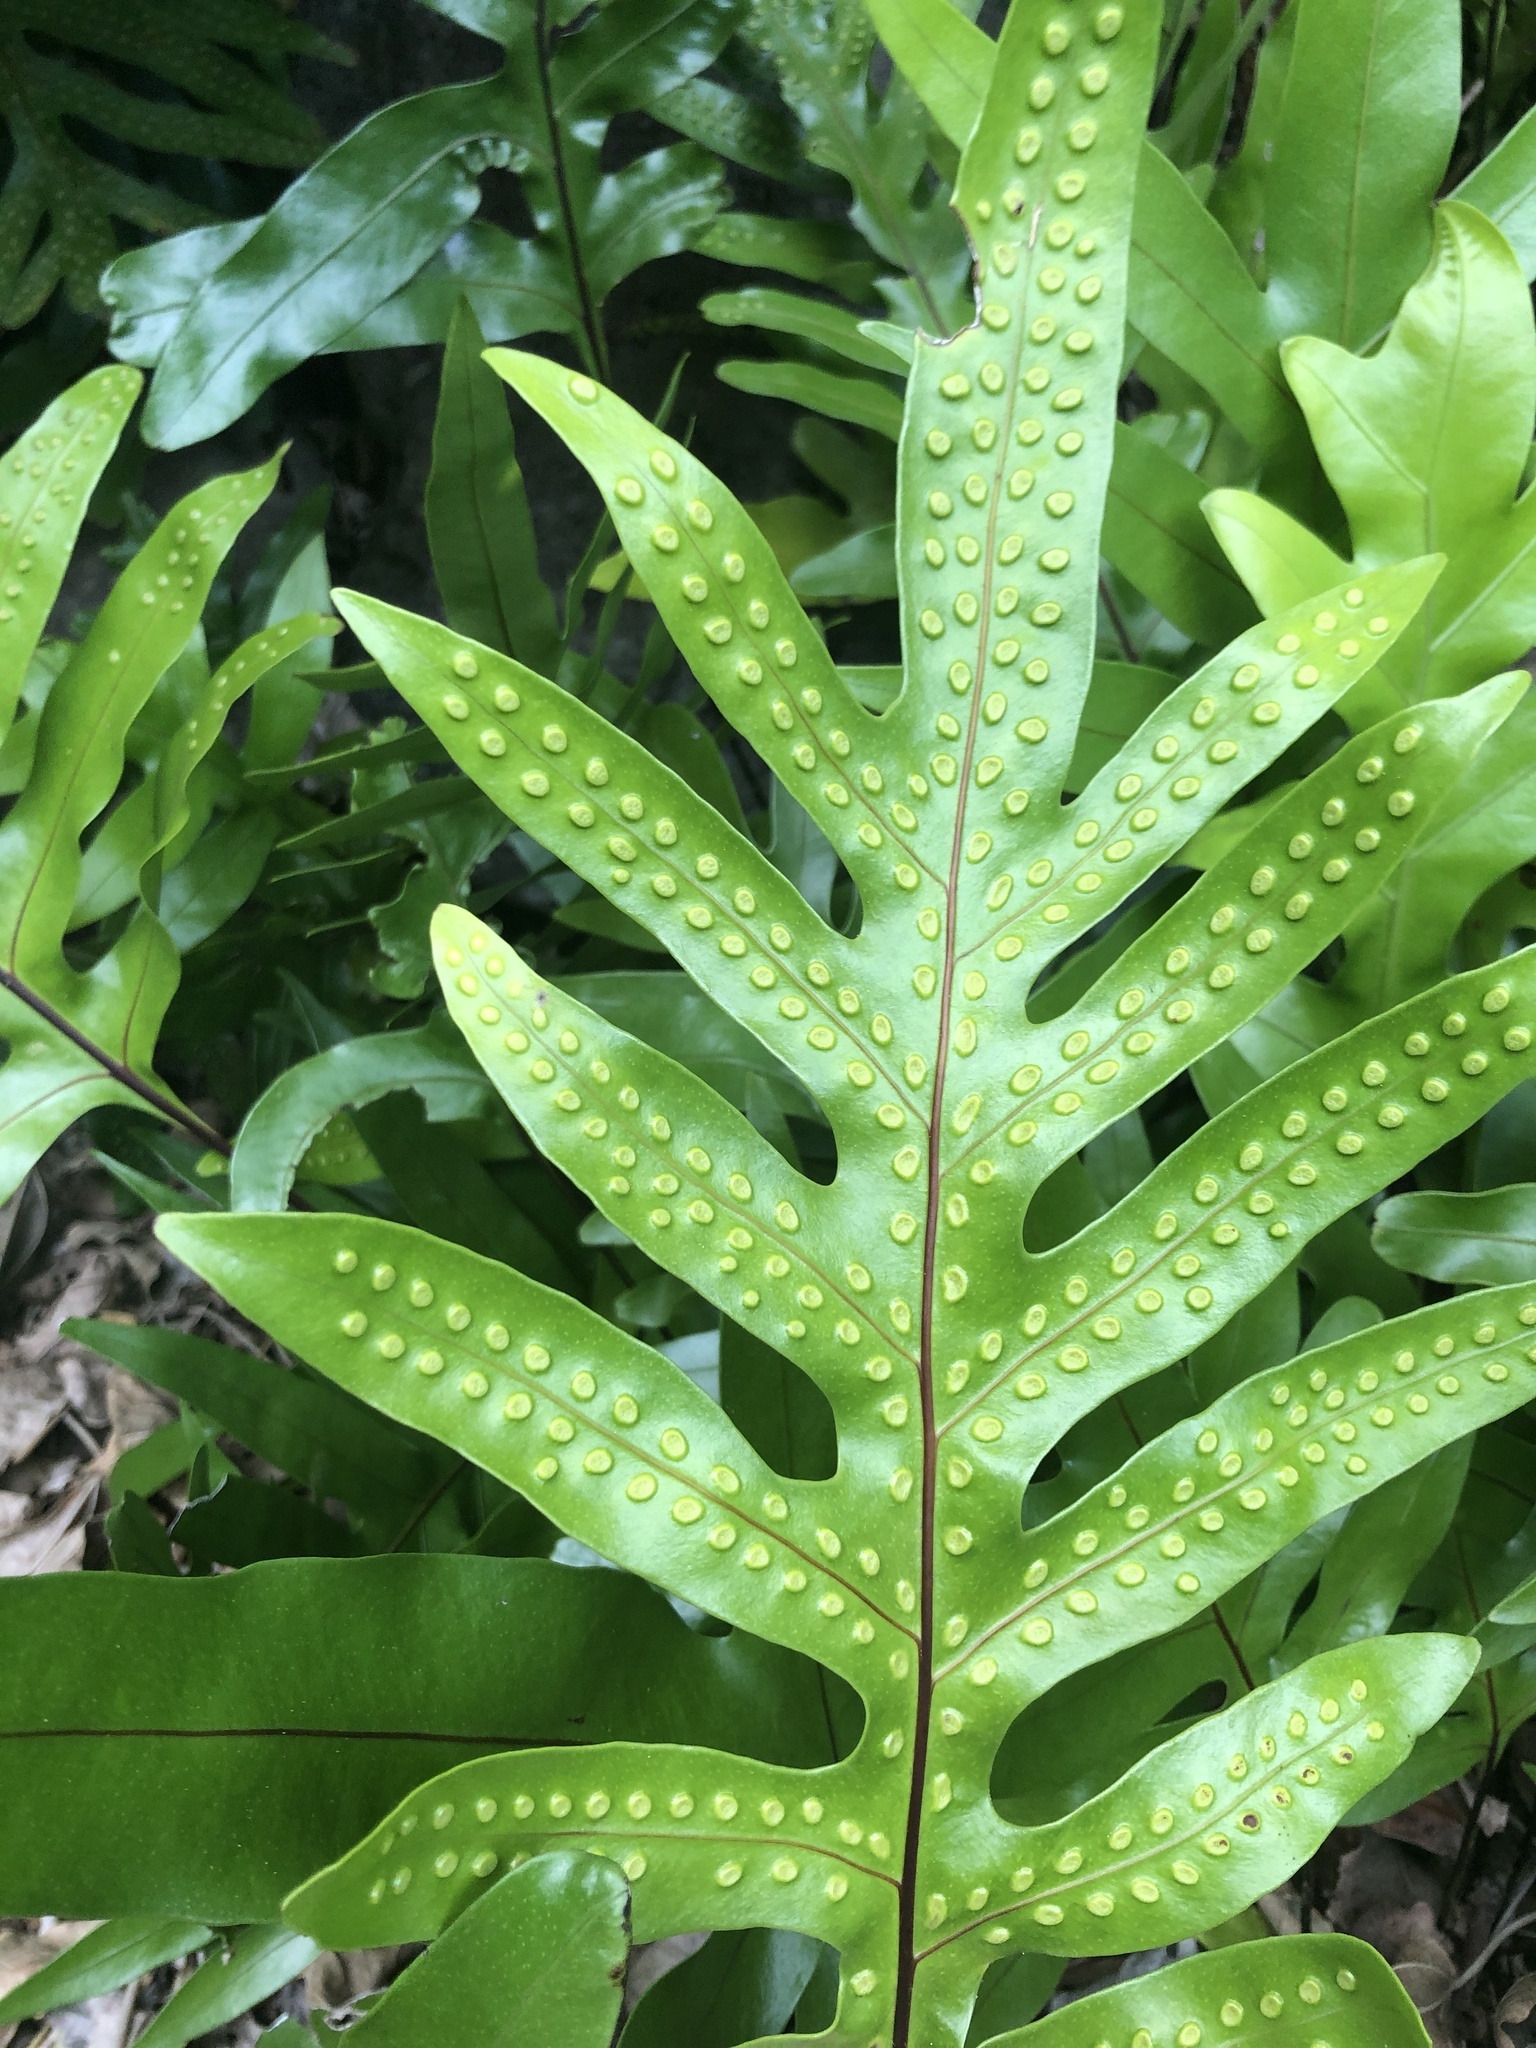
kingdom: Plantae
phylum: Tracheophyta
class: Polypodiopsida
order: Polypodiales
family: Polypodiaceae
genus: Microsorum
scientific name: Microsorum grossum
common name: Musk fern
